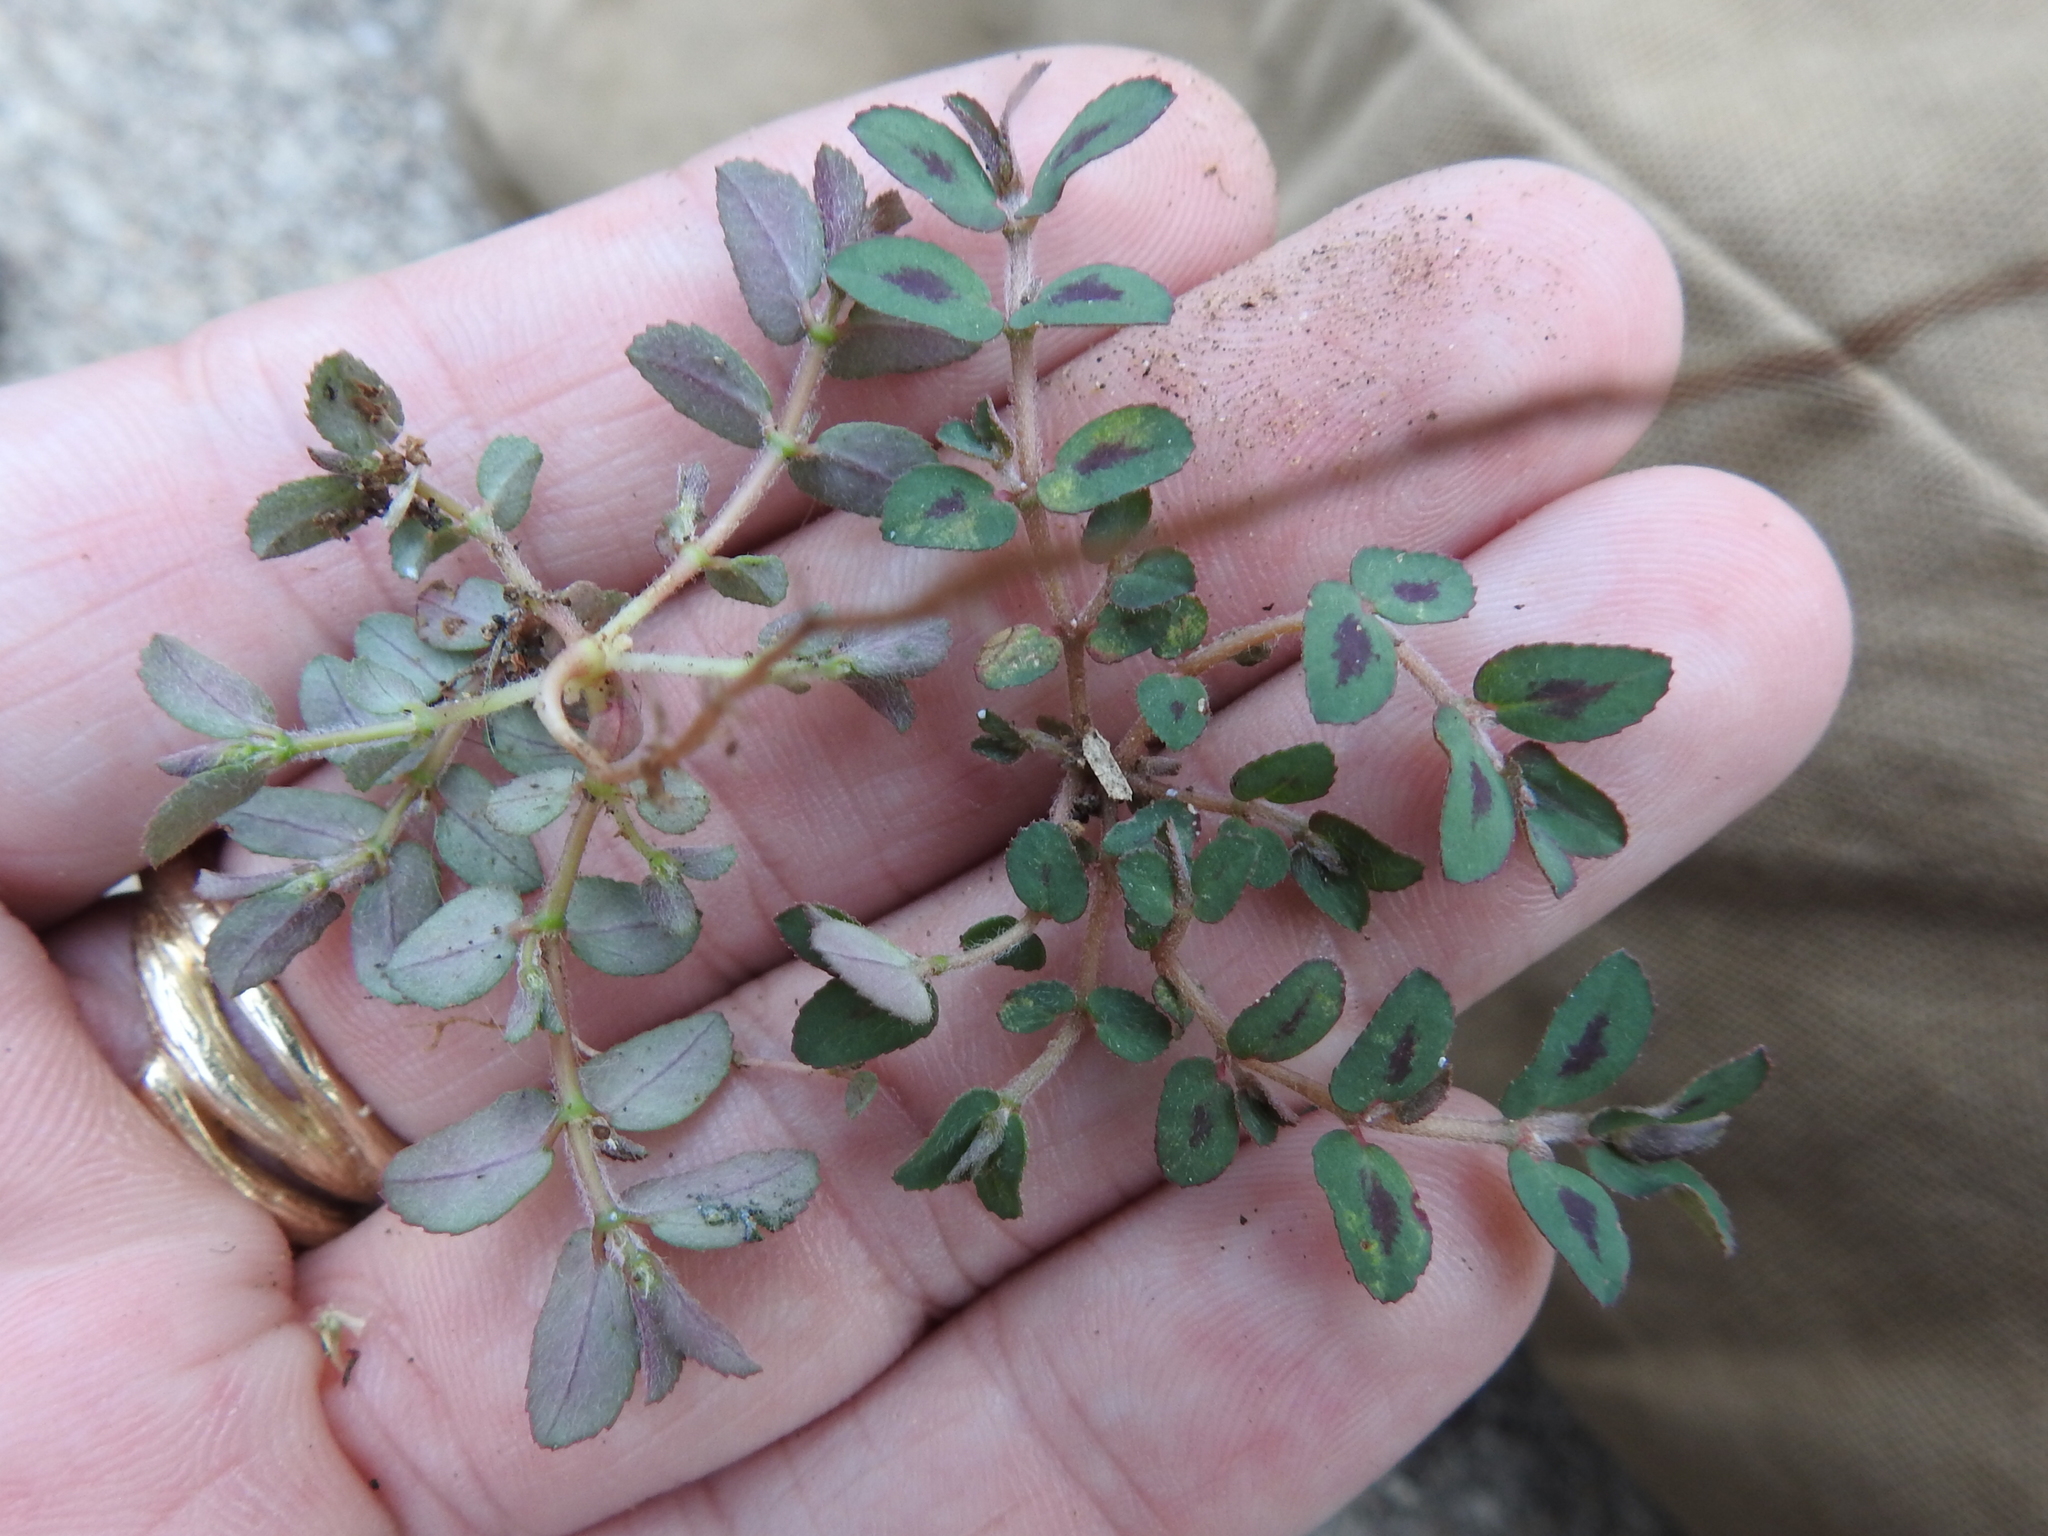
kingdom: Plantae
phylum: Tracheophyta
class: Magnoliopsida
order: Malpighiales
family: Euphorbiaceae
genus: Euphorbia
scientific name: Euphorbia maculata
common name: Spotted spurge
